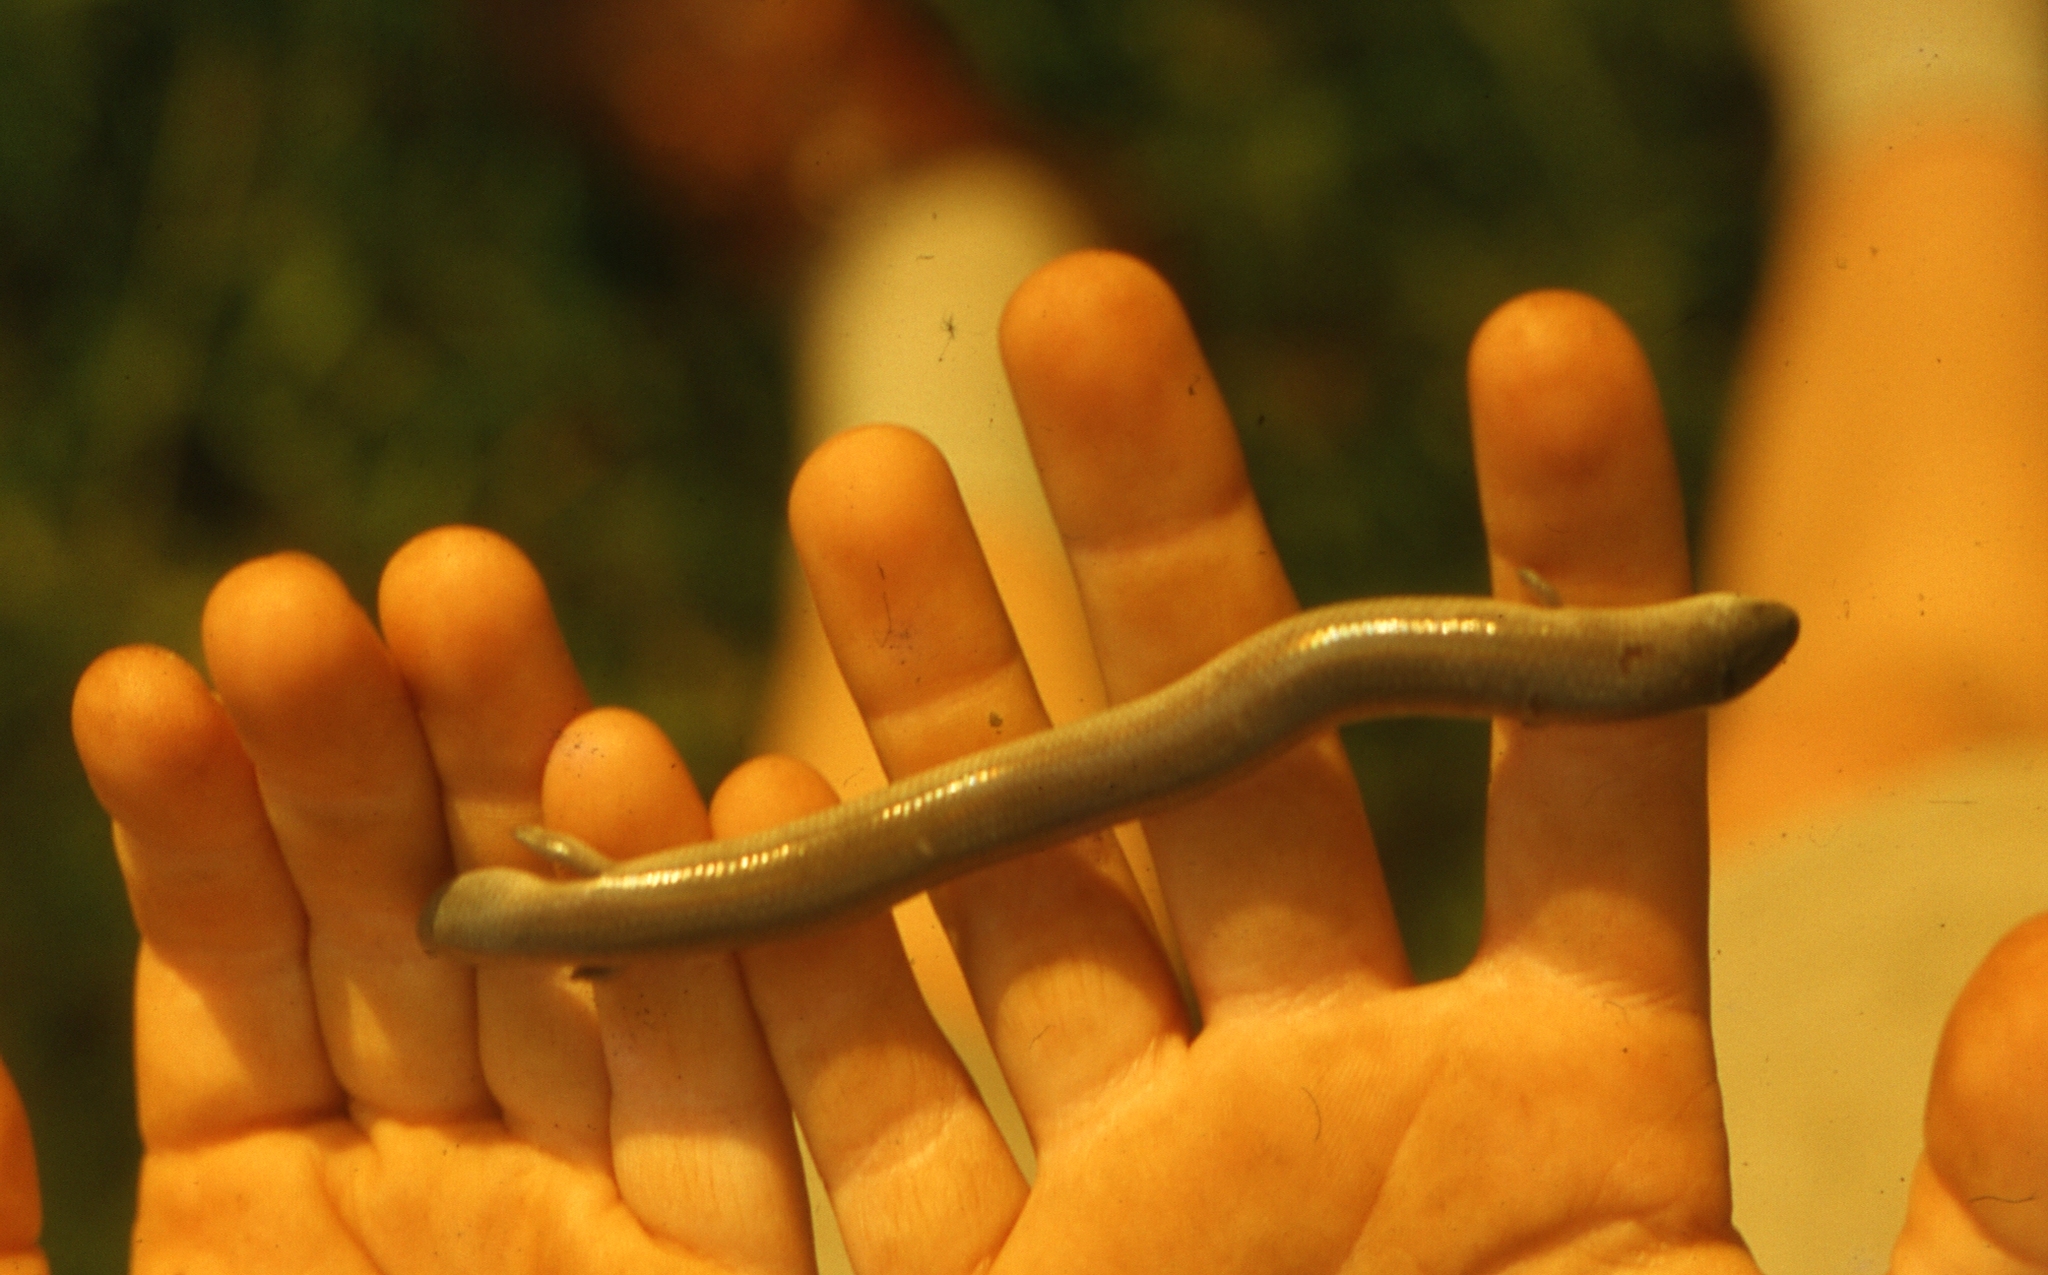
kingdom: Animalia
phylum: Chordata
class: Squamata
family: Scincidae
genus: Sepsina
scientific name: Sepsina tetradactyla
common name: Four-fingered skink
